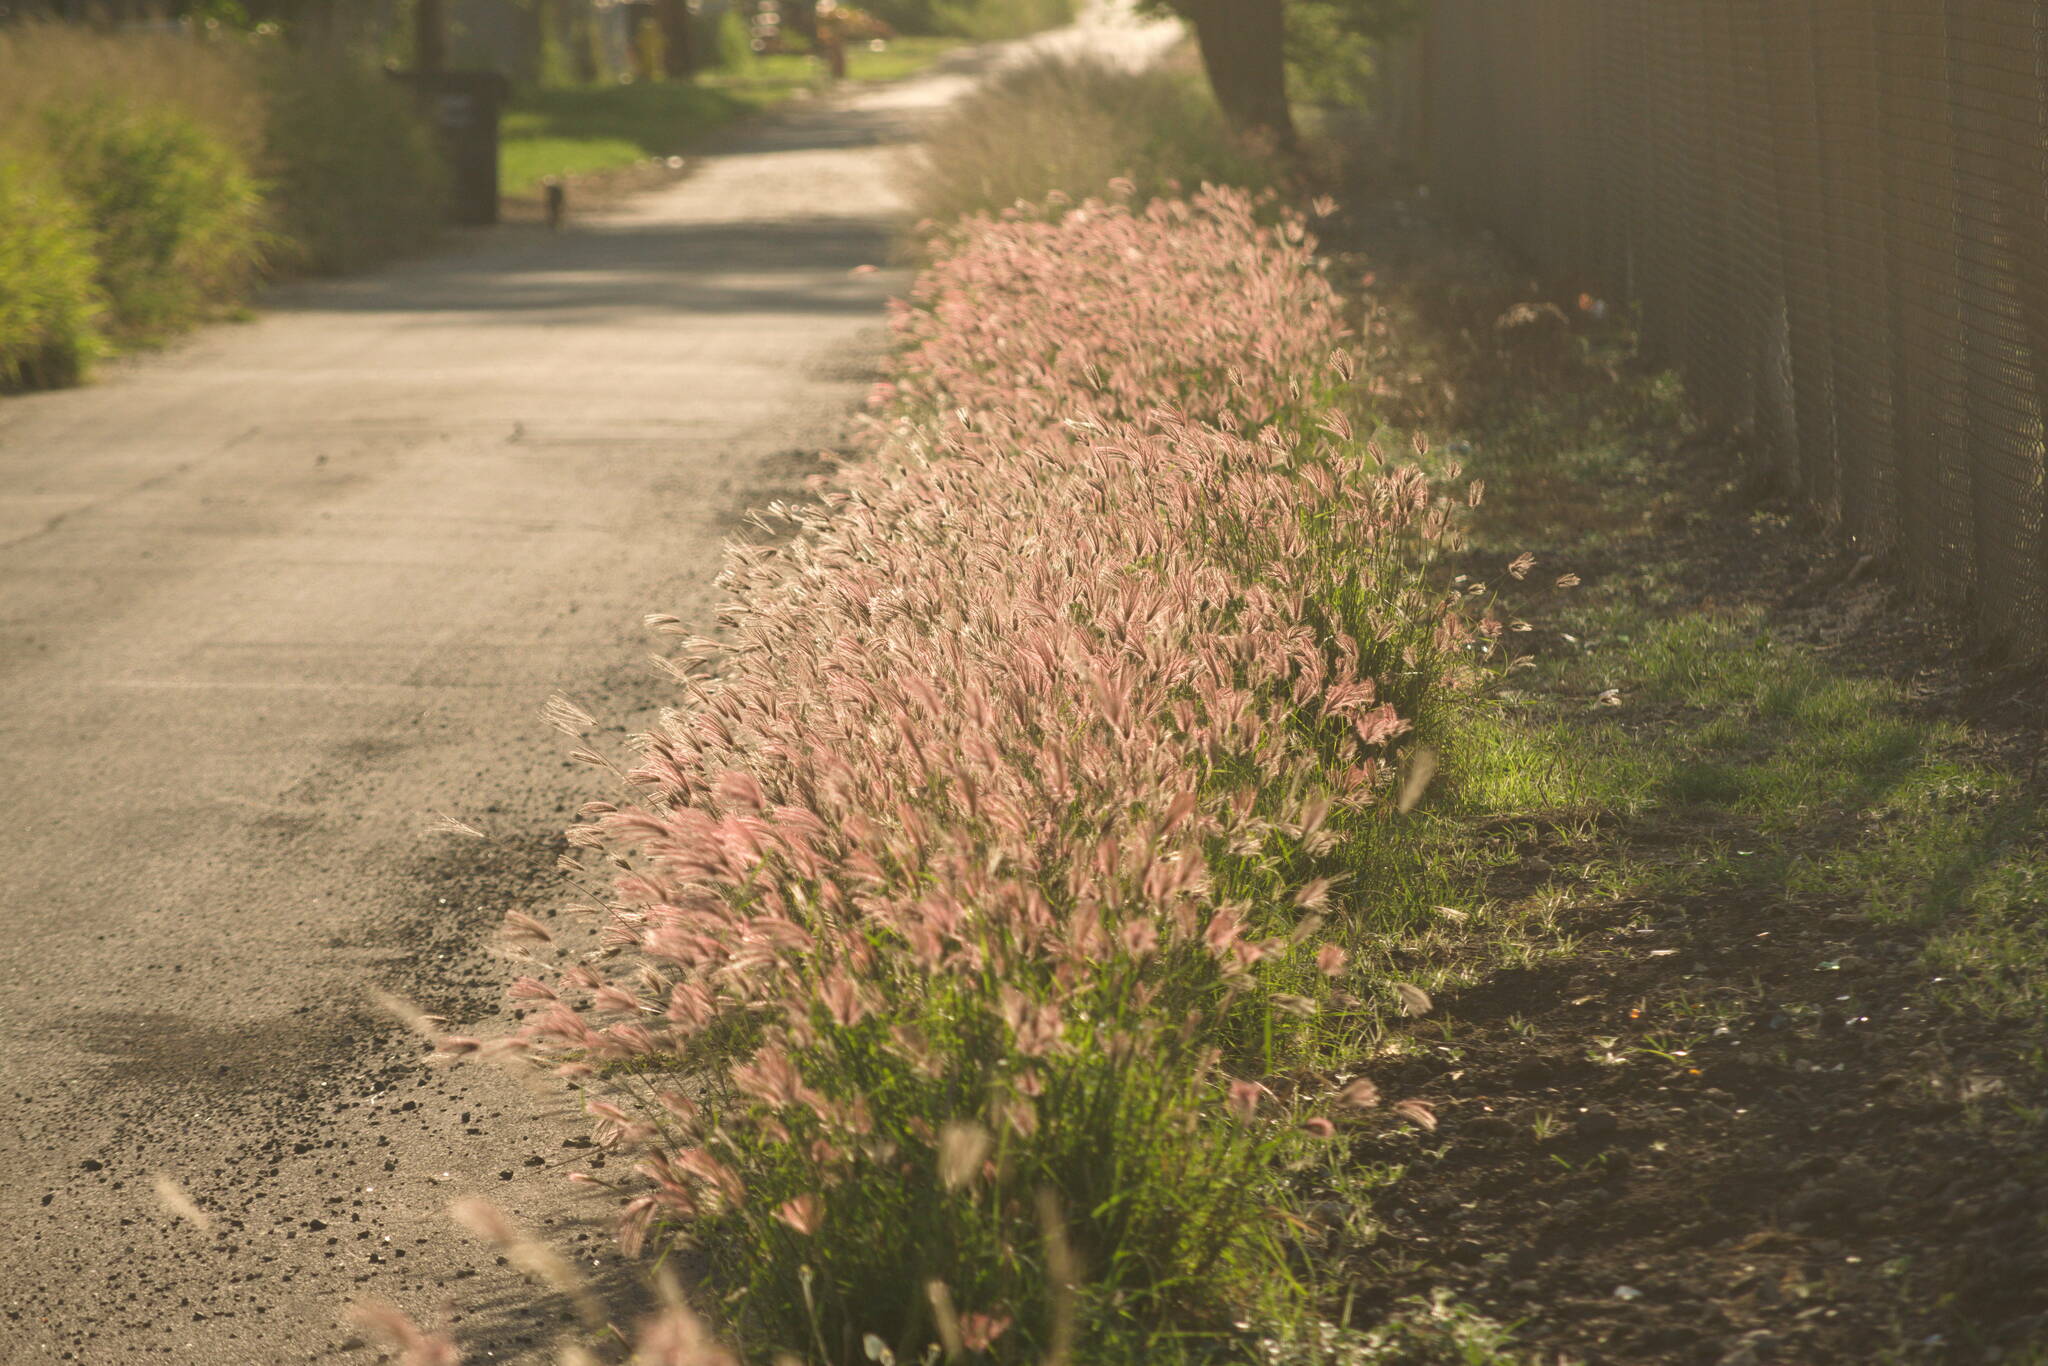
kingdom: Plantae
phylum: Tracheophyta
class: Liliopsida
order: Poales
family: Poaceae
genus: Chloris
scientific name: Chloris barbata
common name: Swollen fingergrass
